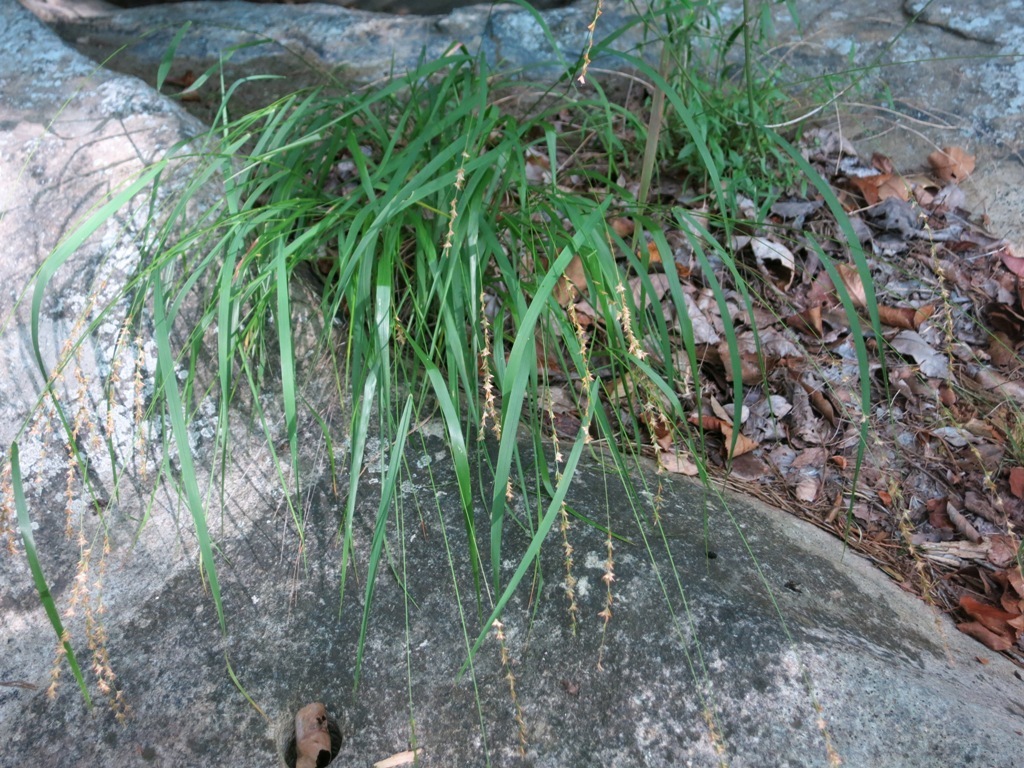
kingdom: Plantae
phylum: Tracheophyta
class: Liliopsida
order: Poales
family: Poaceae
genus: Chasmanthium
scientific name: Chasmanthium laxum
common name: Slender chasmanthium
